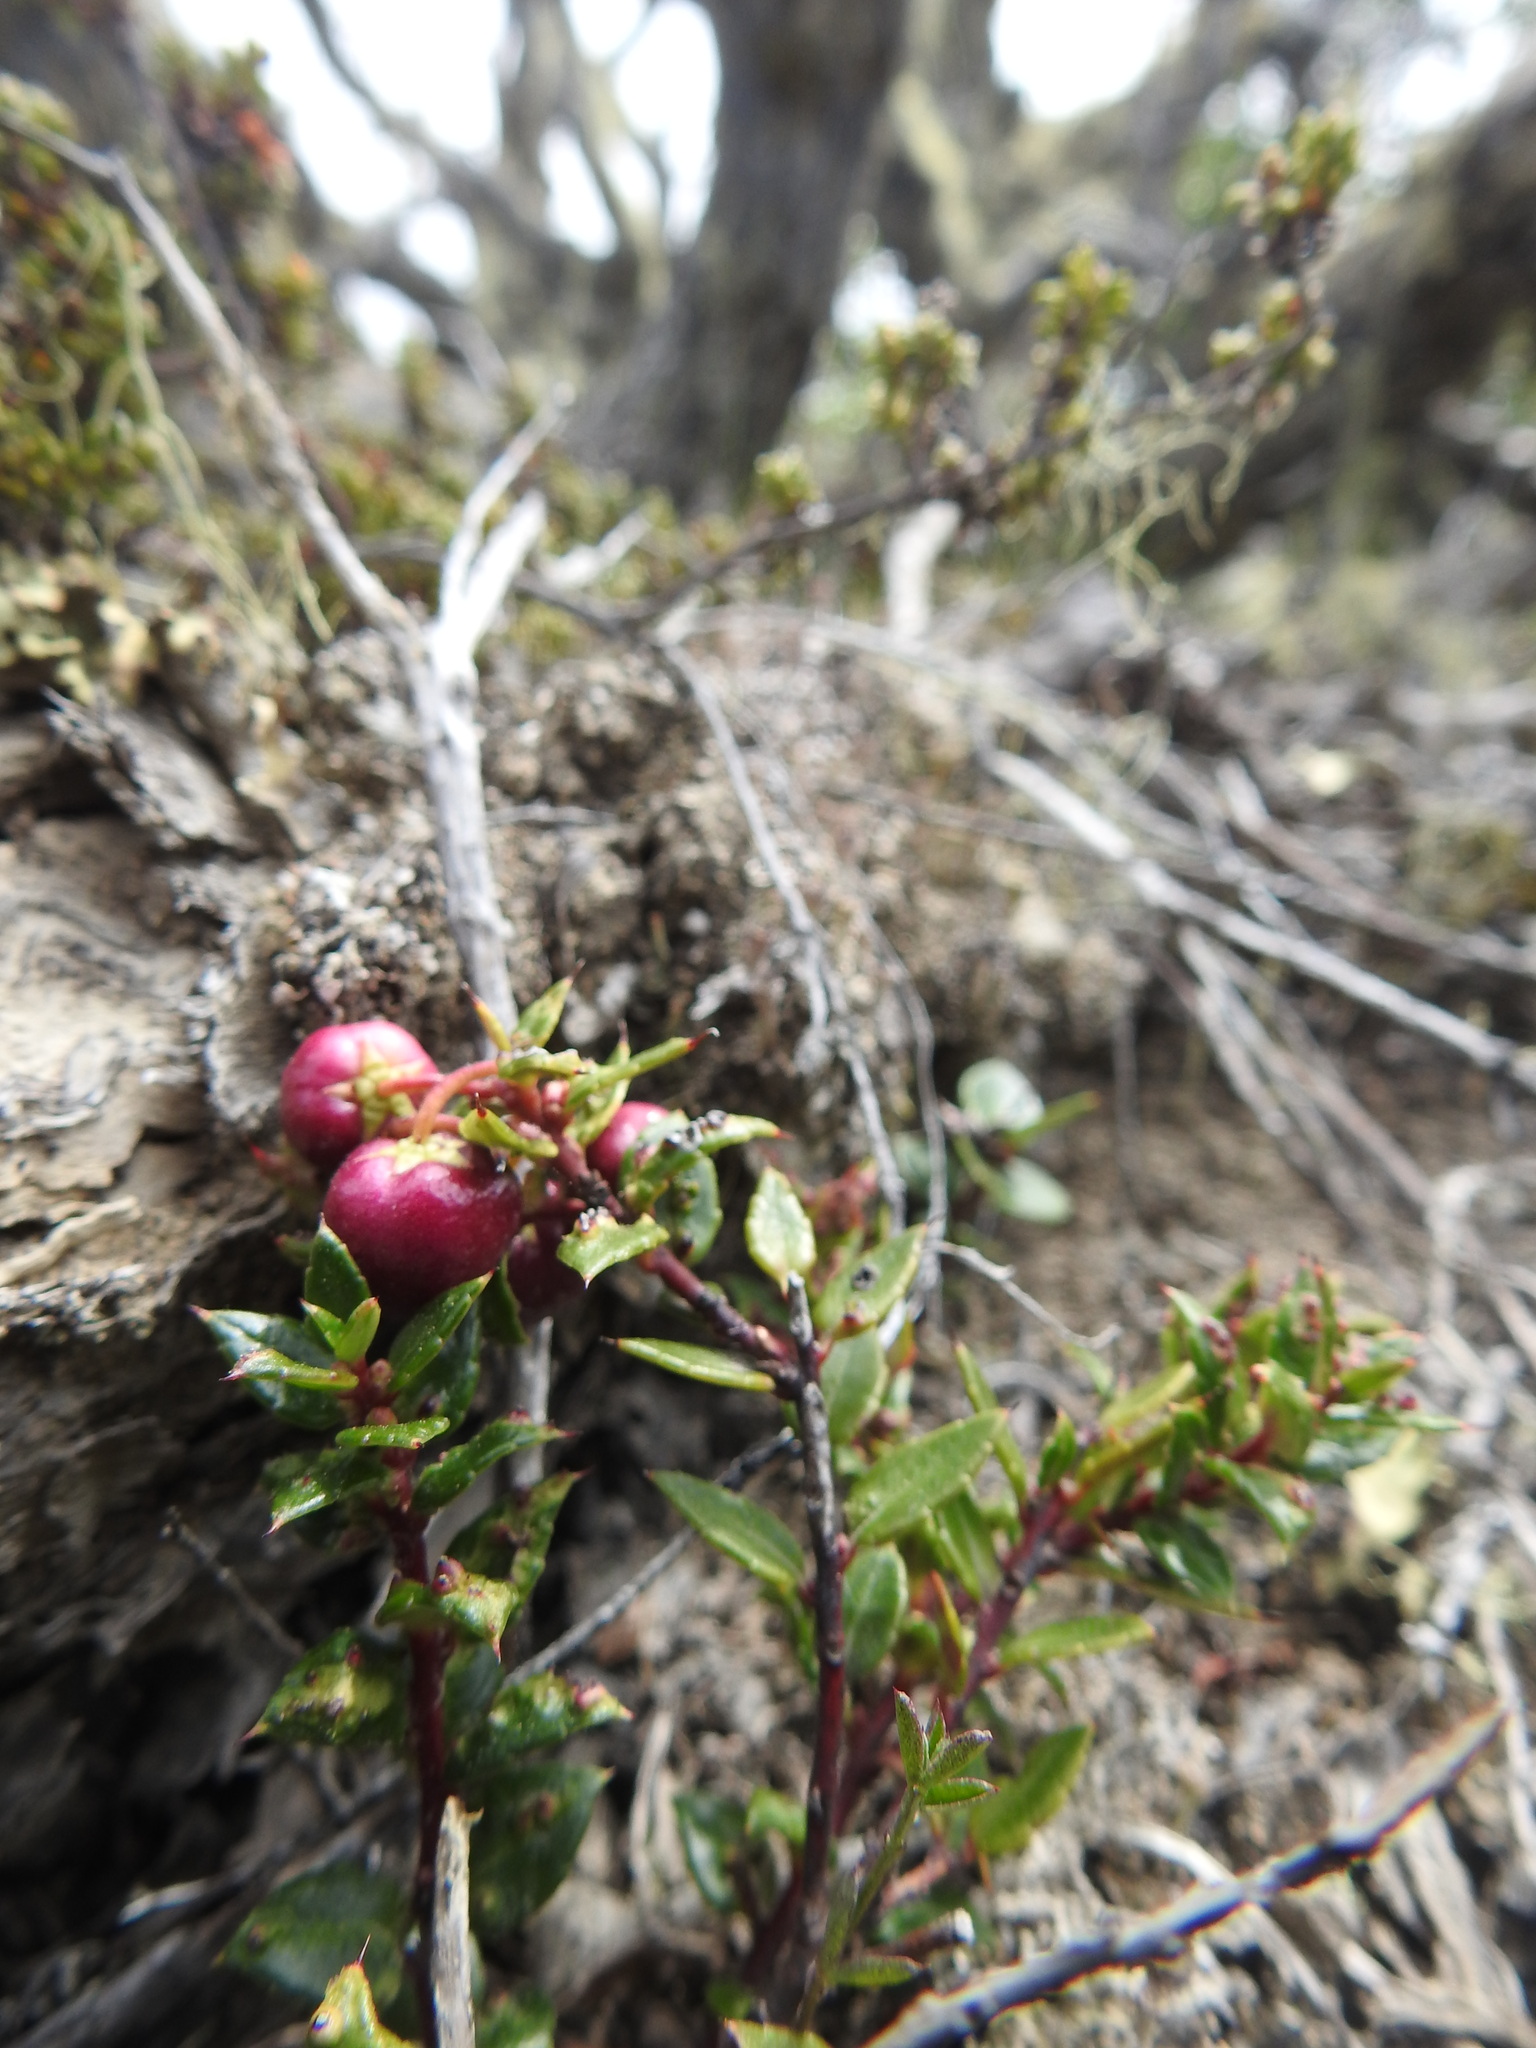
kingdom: Plantae
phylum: Tracheophyta
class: Magnoliopsida
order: Ericales
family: Ericaceae
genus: Gaultheria
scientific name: Gaultheria mucronata
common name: Prickly heath
